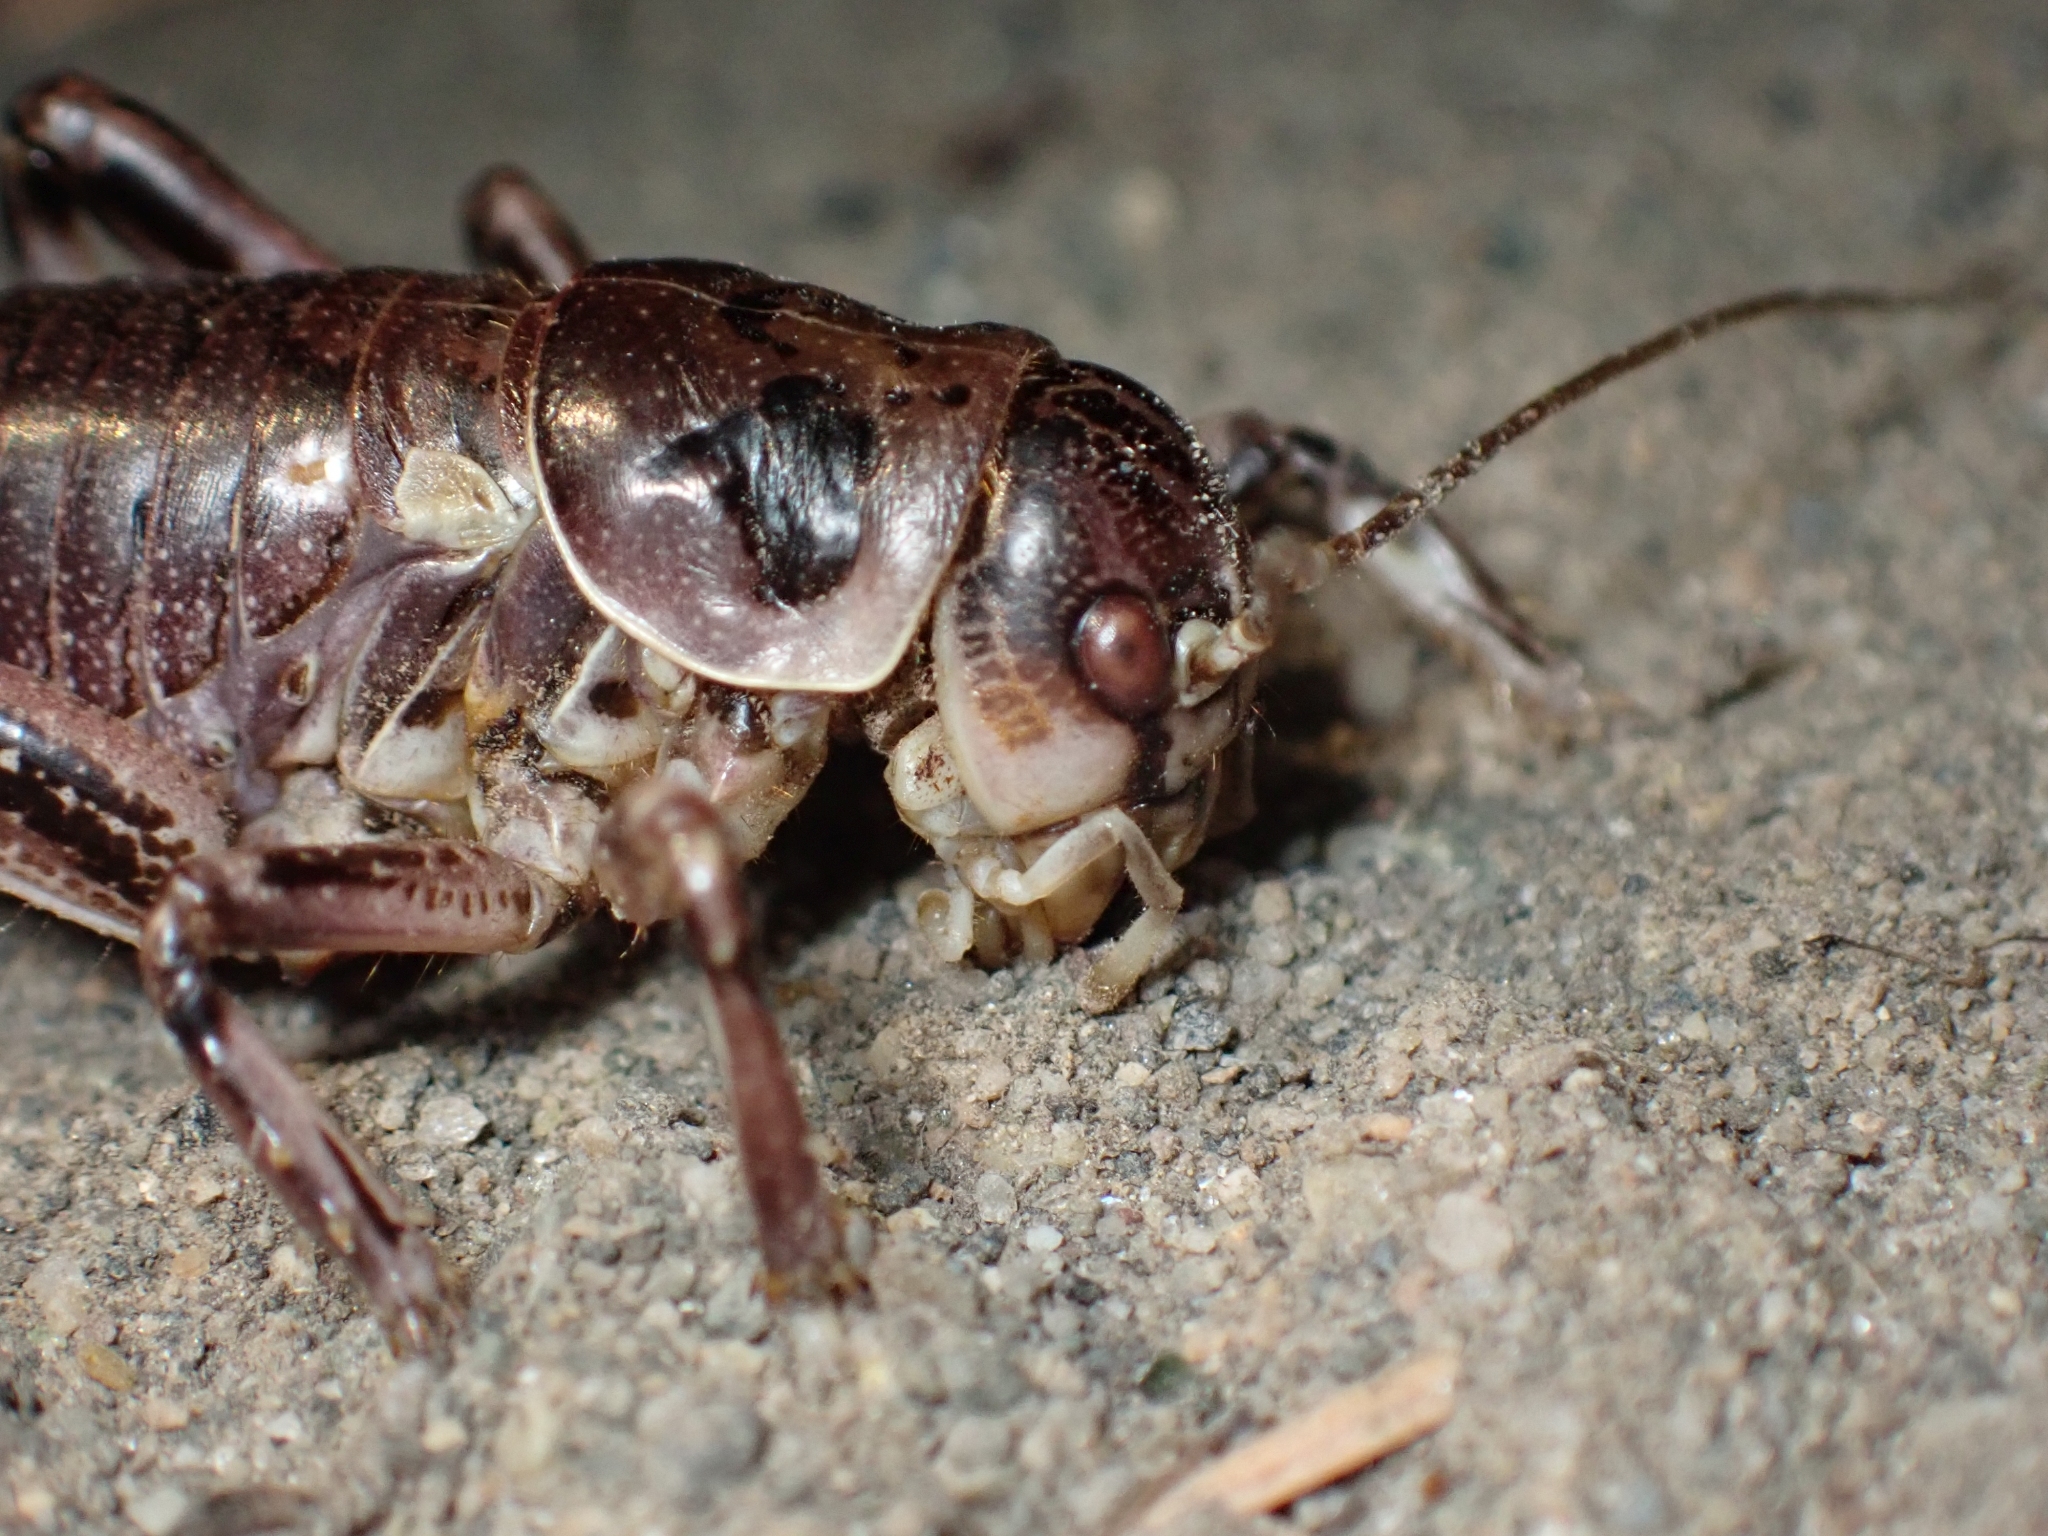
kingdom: Animalia
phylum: Arthropoda
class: Insecta
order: Orthoptera
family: Prophalangopsidae
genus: Cyphoderris
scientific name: Cyphoderris monstrosa
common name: Great grig
